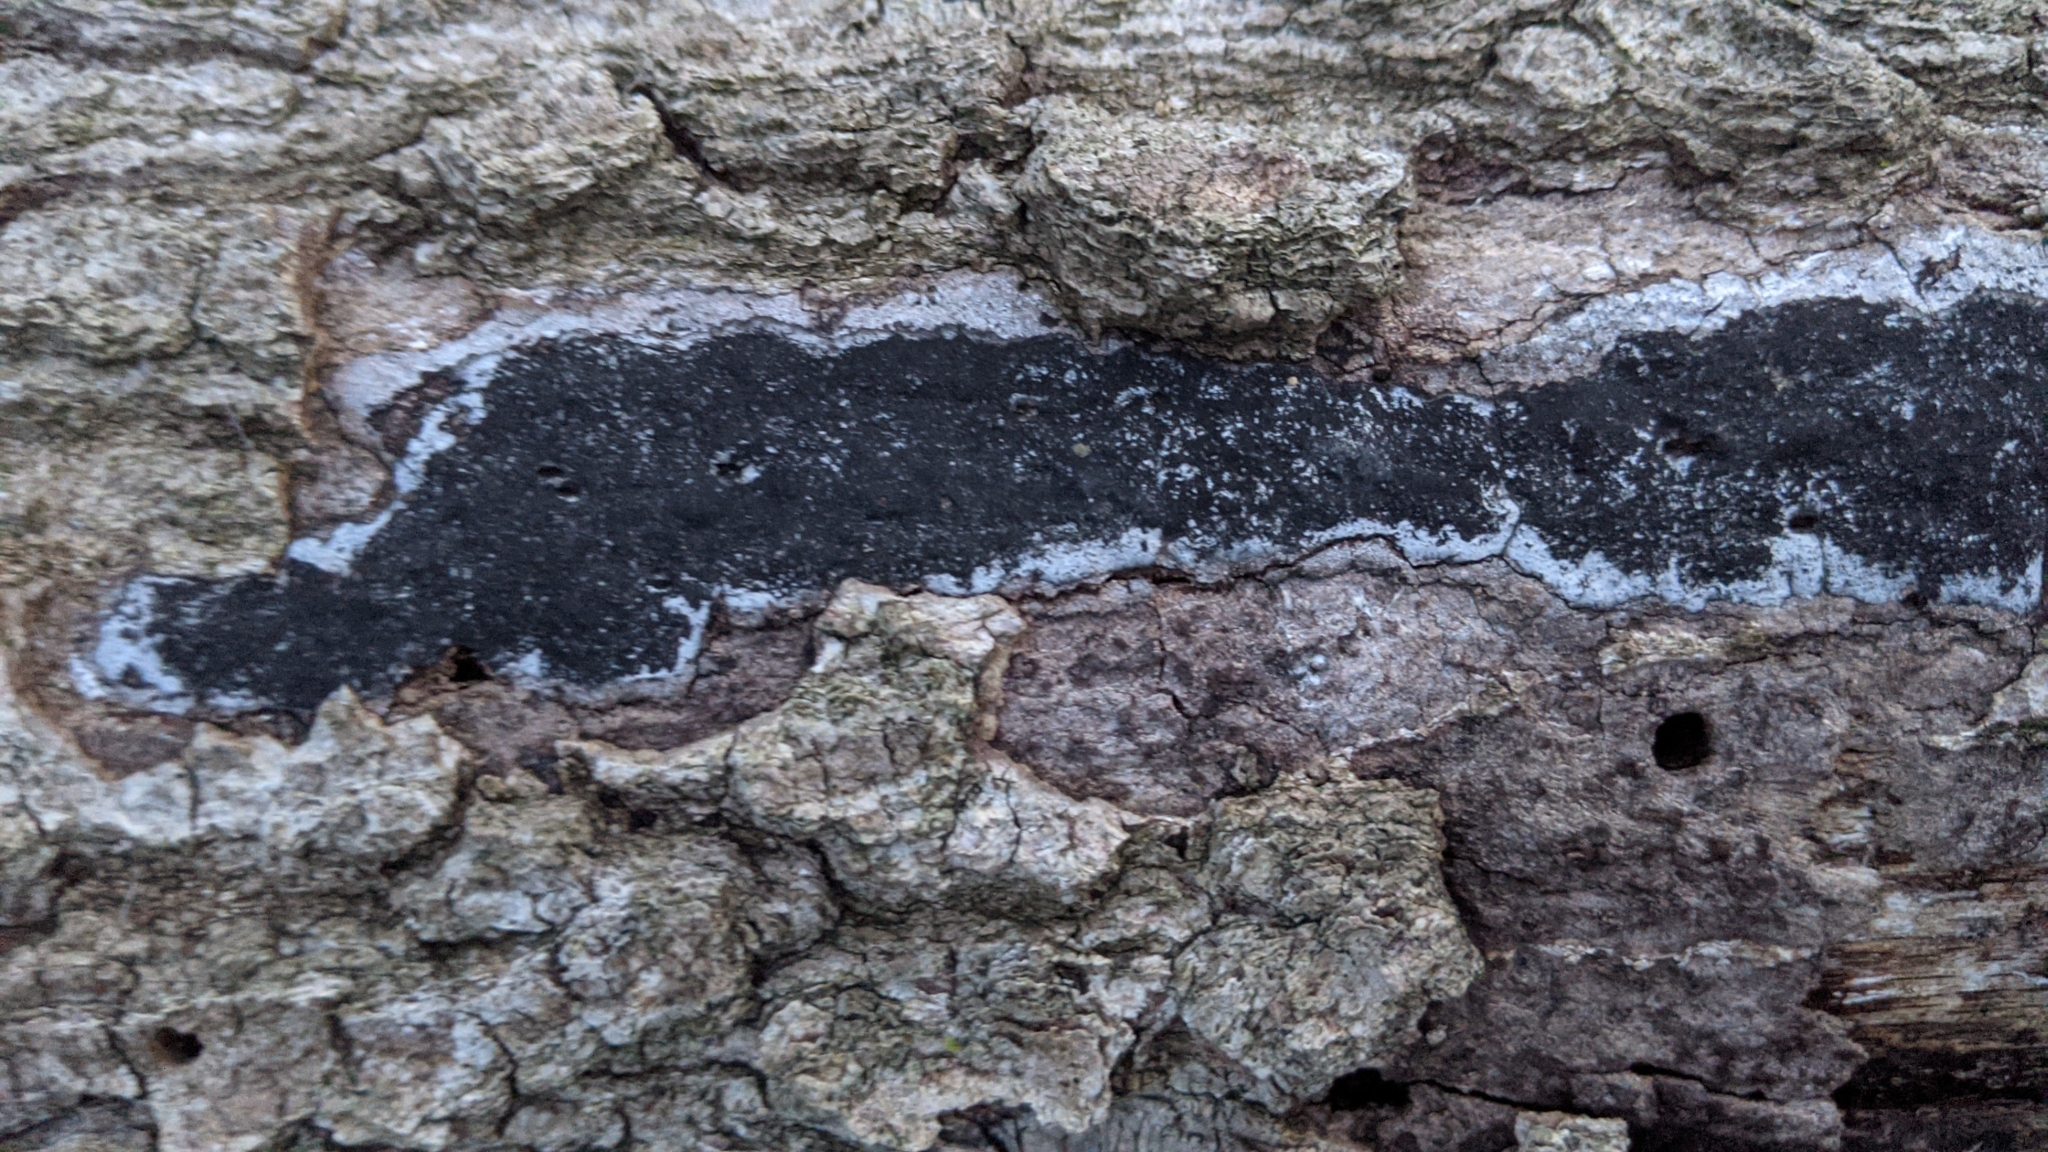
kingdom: Fungi
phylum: Ascomycota
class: Sordariomycetes
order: Xylariales
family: Graphostromataceae
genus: Biscogniauxia
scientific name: Biscogniauxia atropunctata
